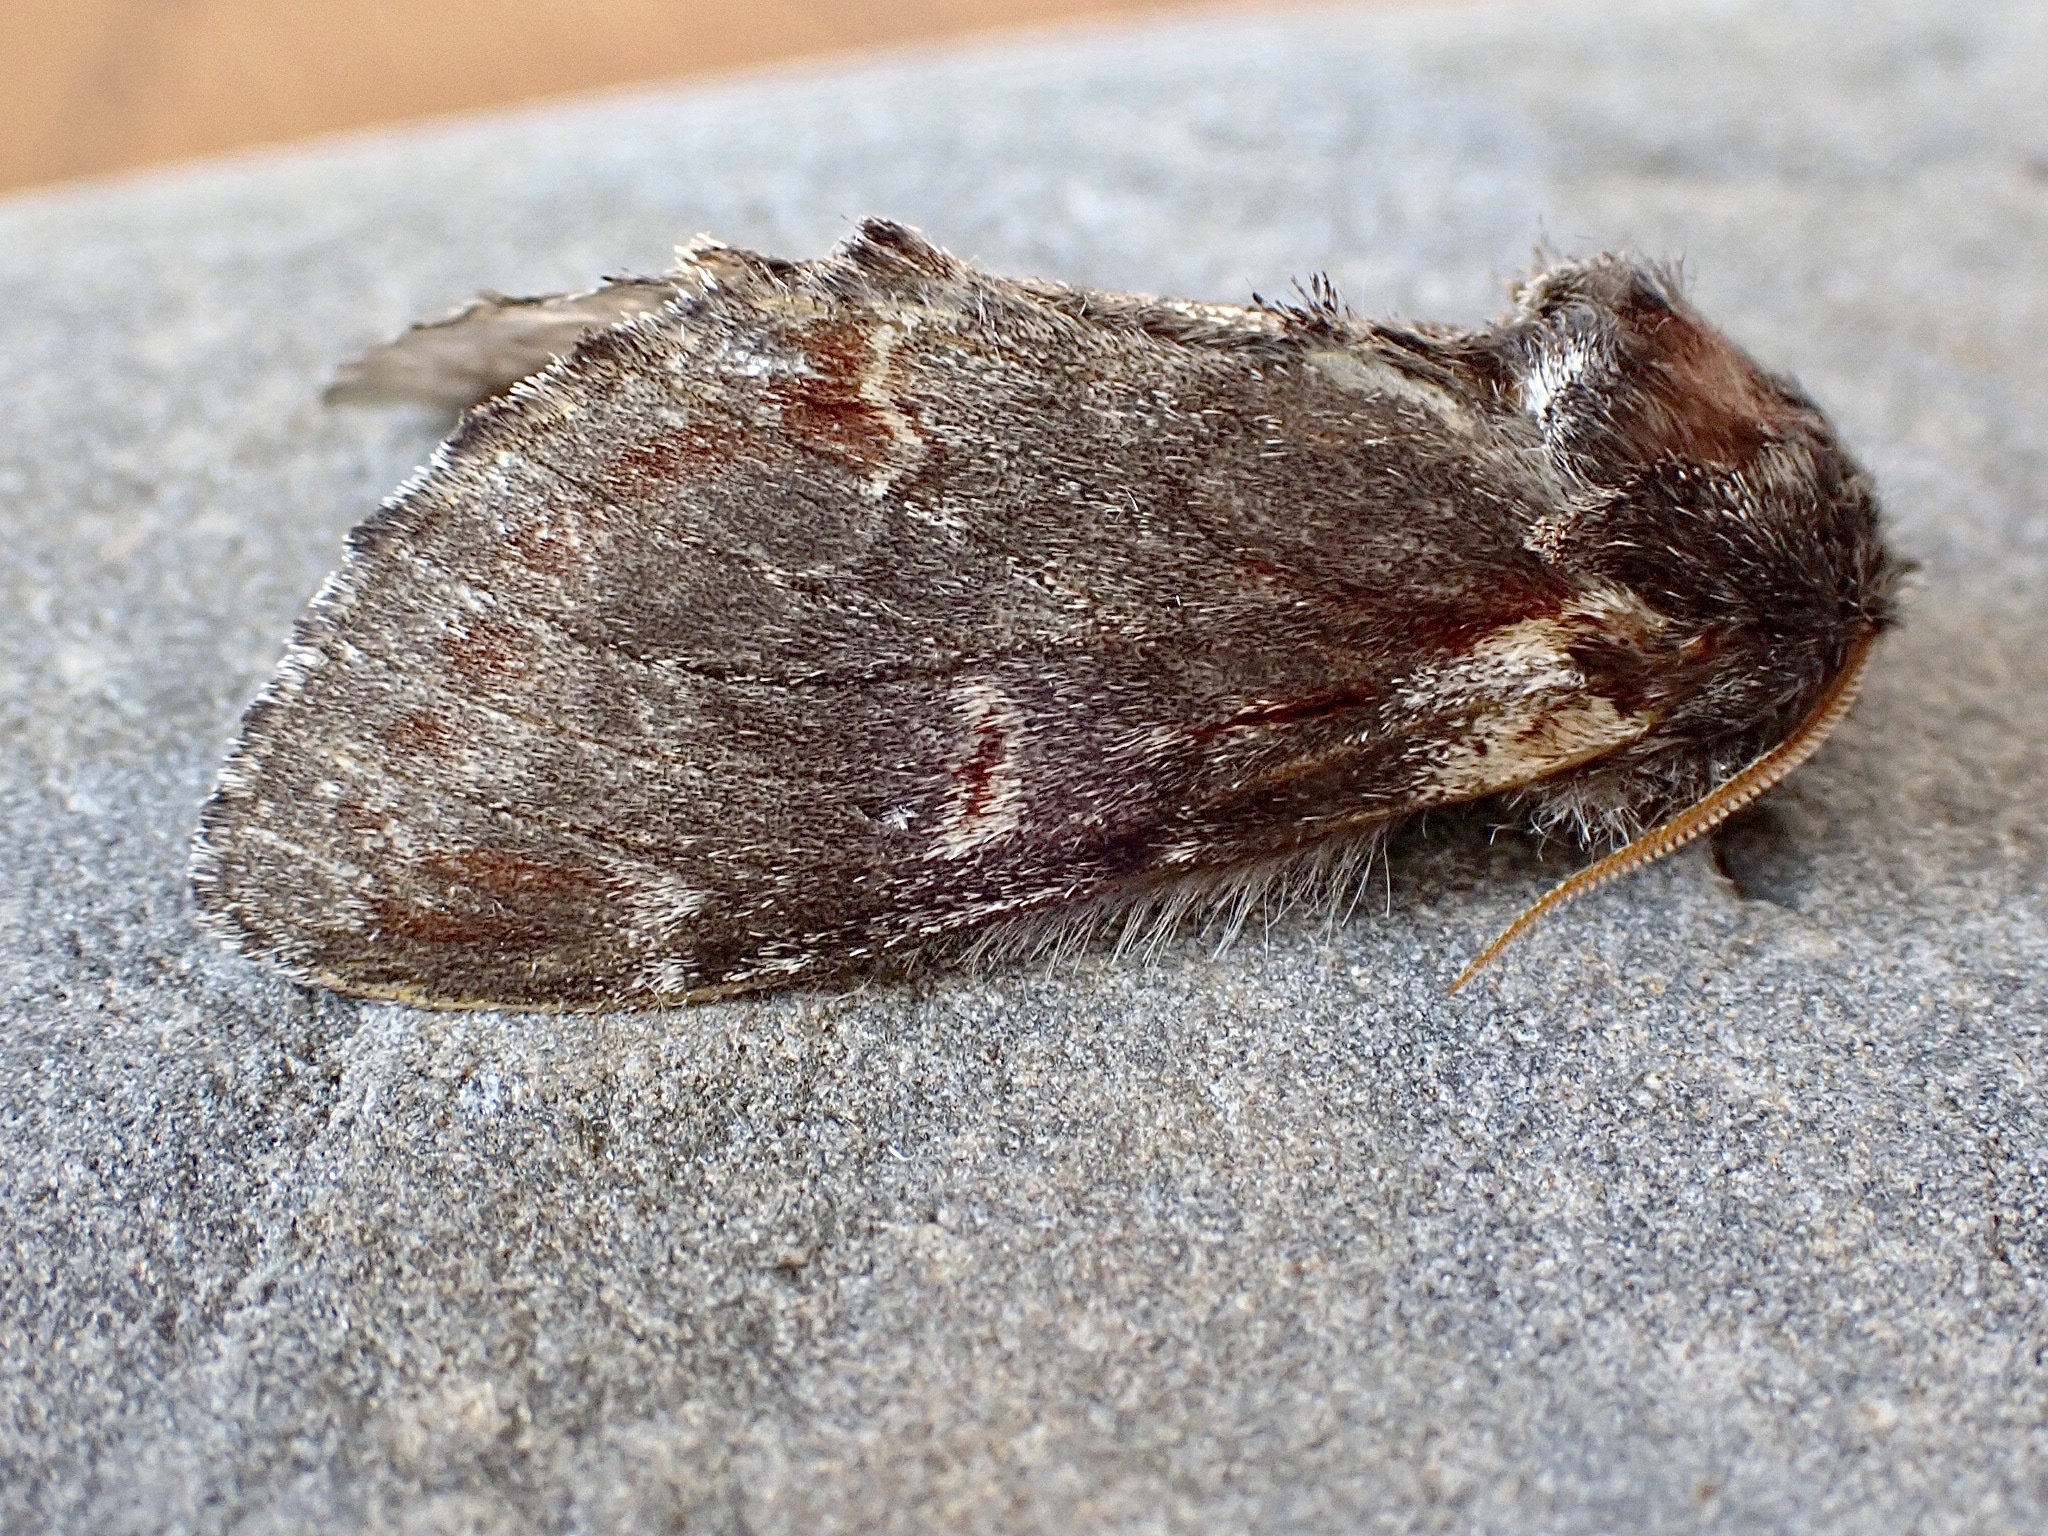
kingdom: Animalia
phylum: Arthropoda
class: Insecta
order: Lepidoptera
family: Notodontidae
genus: Notodonta
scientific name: Notodonta dromedarius
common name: Iron prominent
